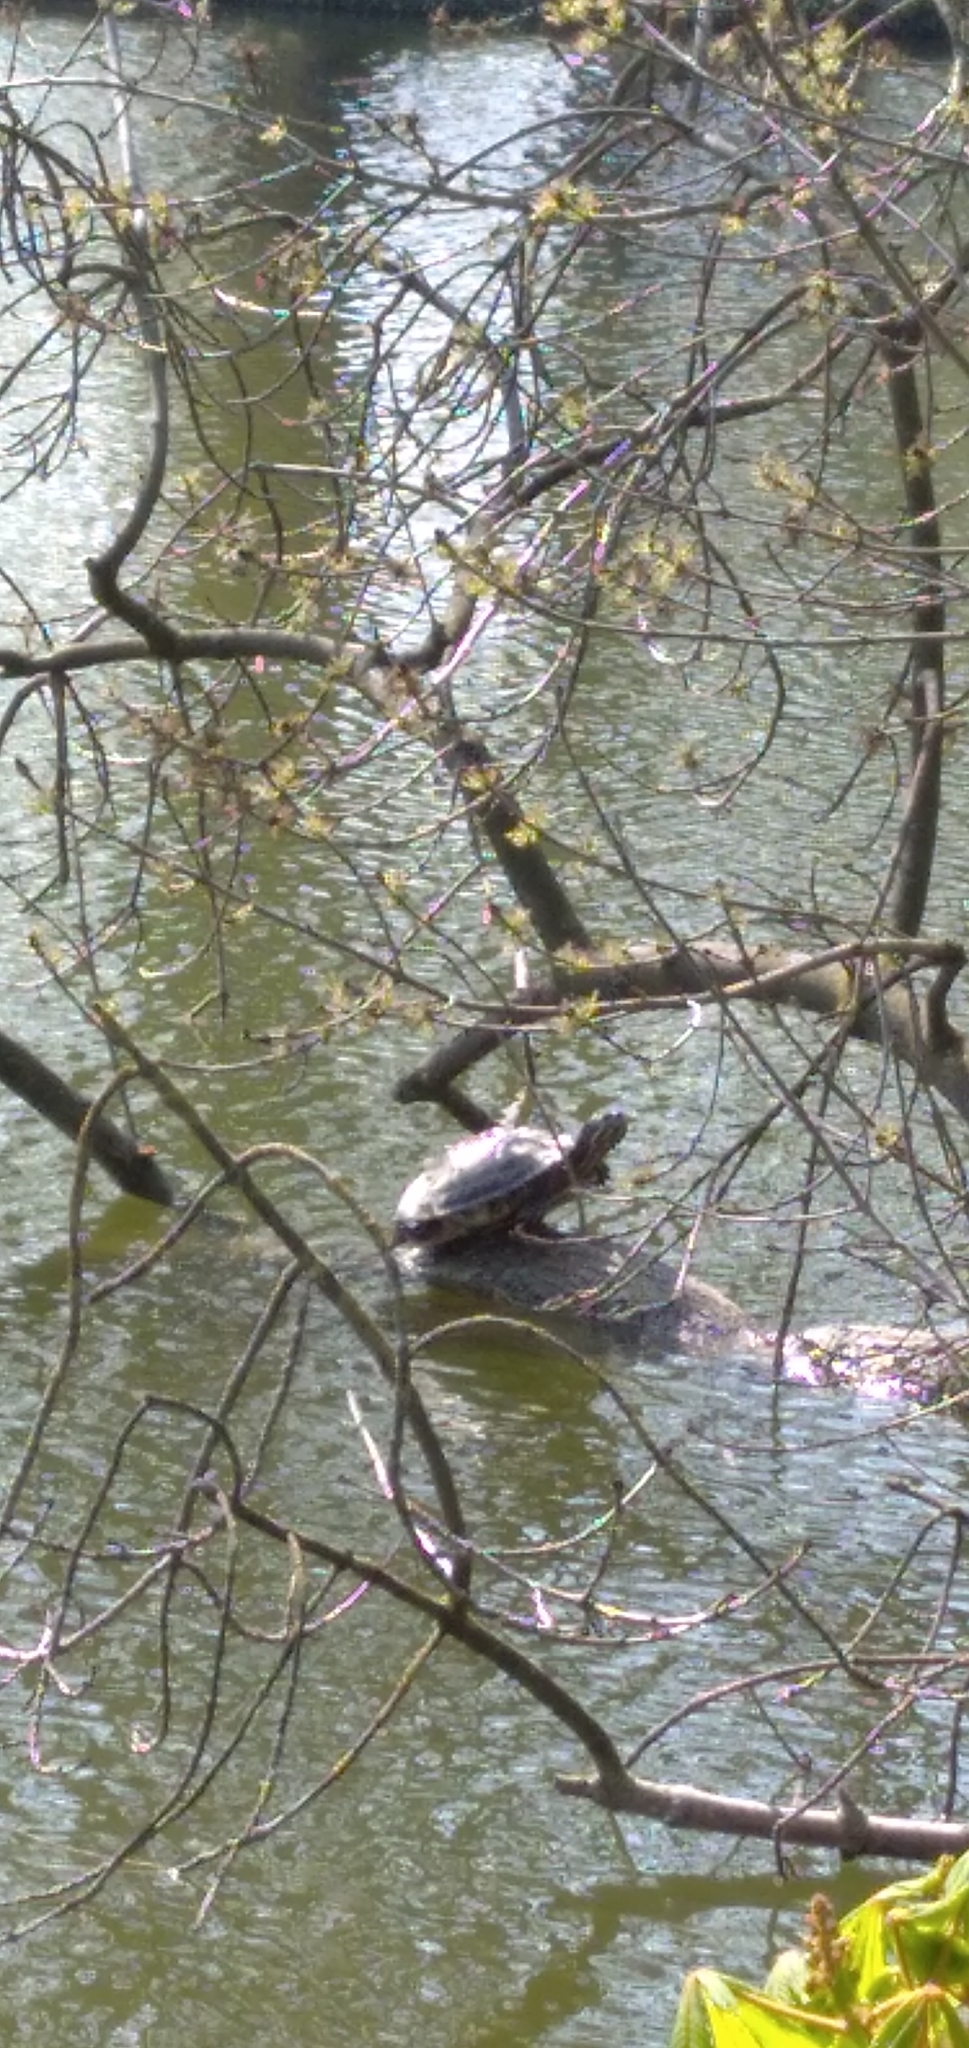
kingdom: Animalia
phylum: Chordata
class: Testudines
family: Emydidae
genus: Trachemys
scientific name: Trachemys scripta
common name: Slider
